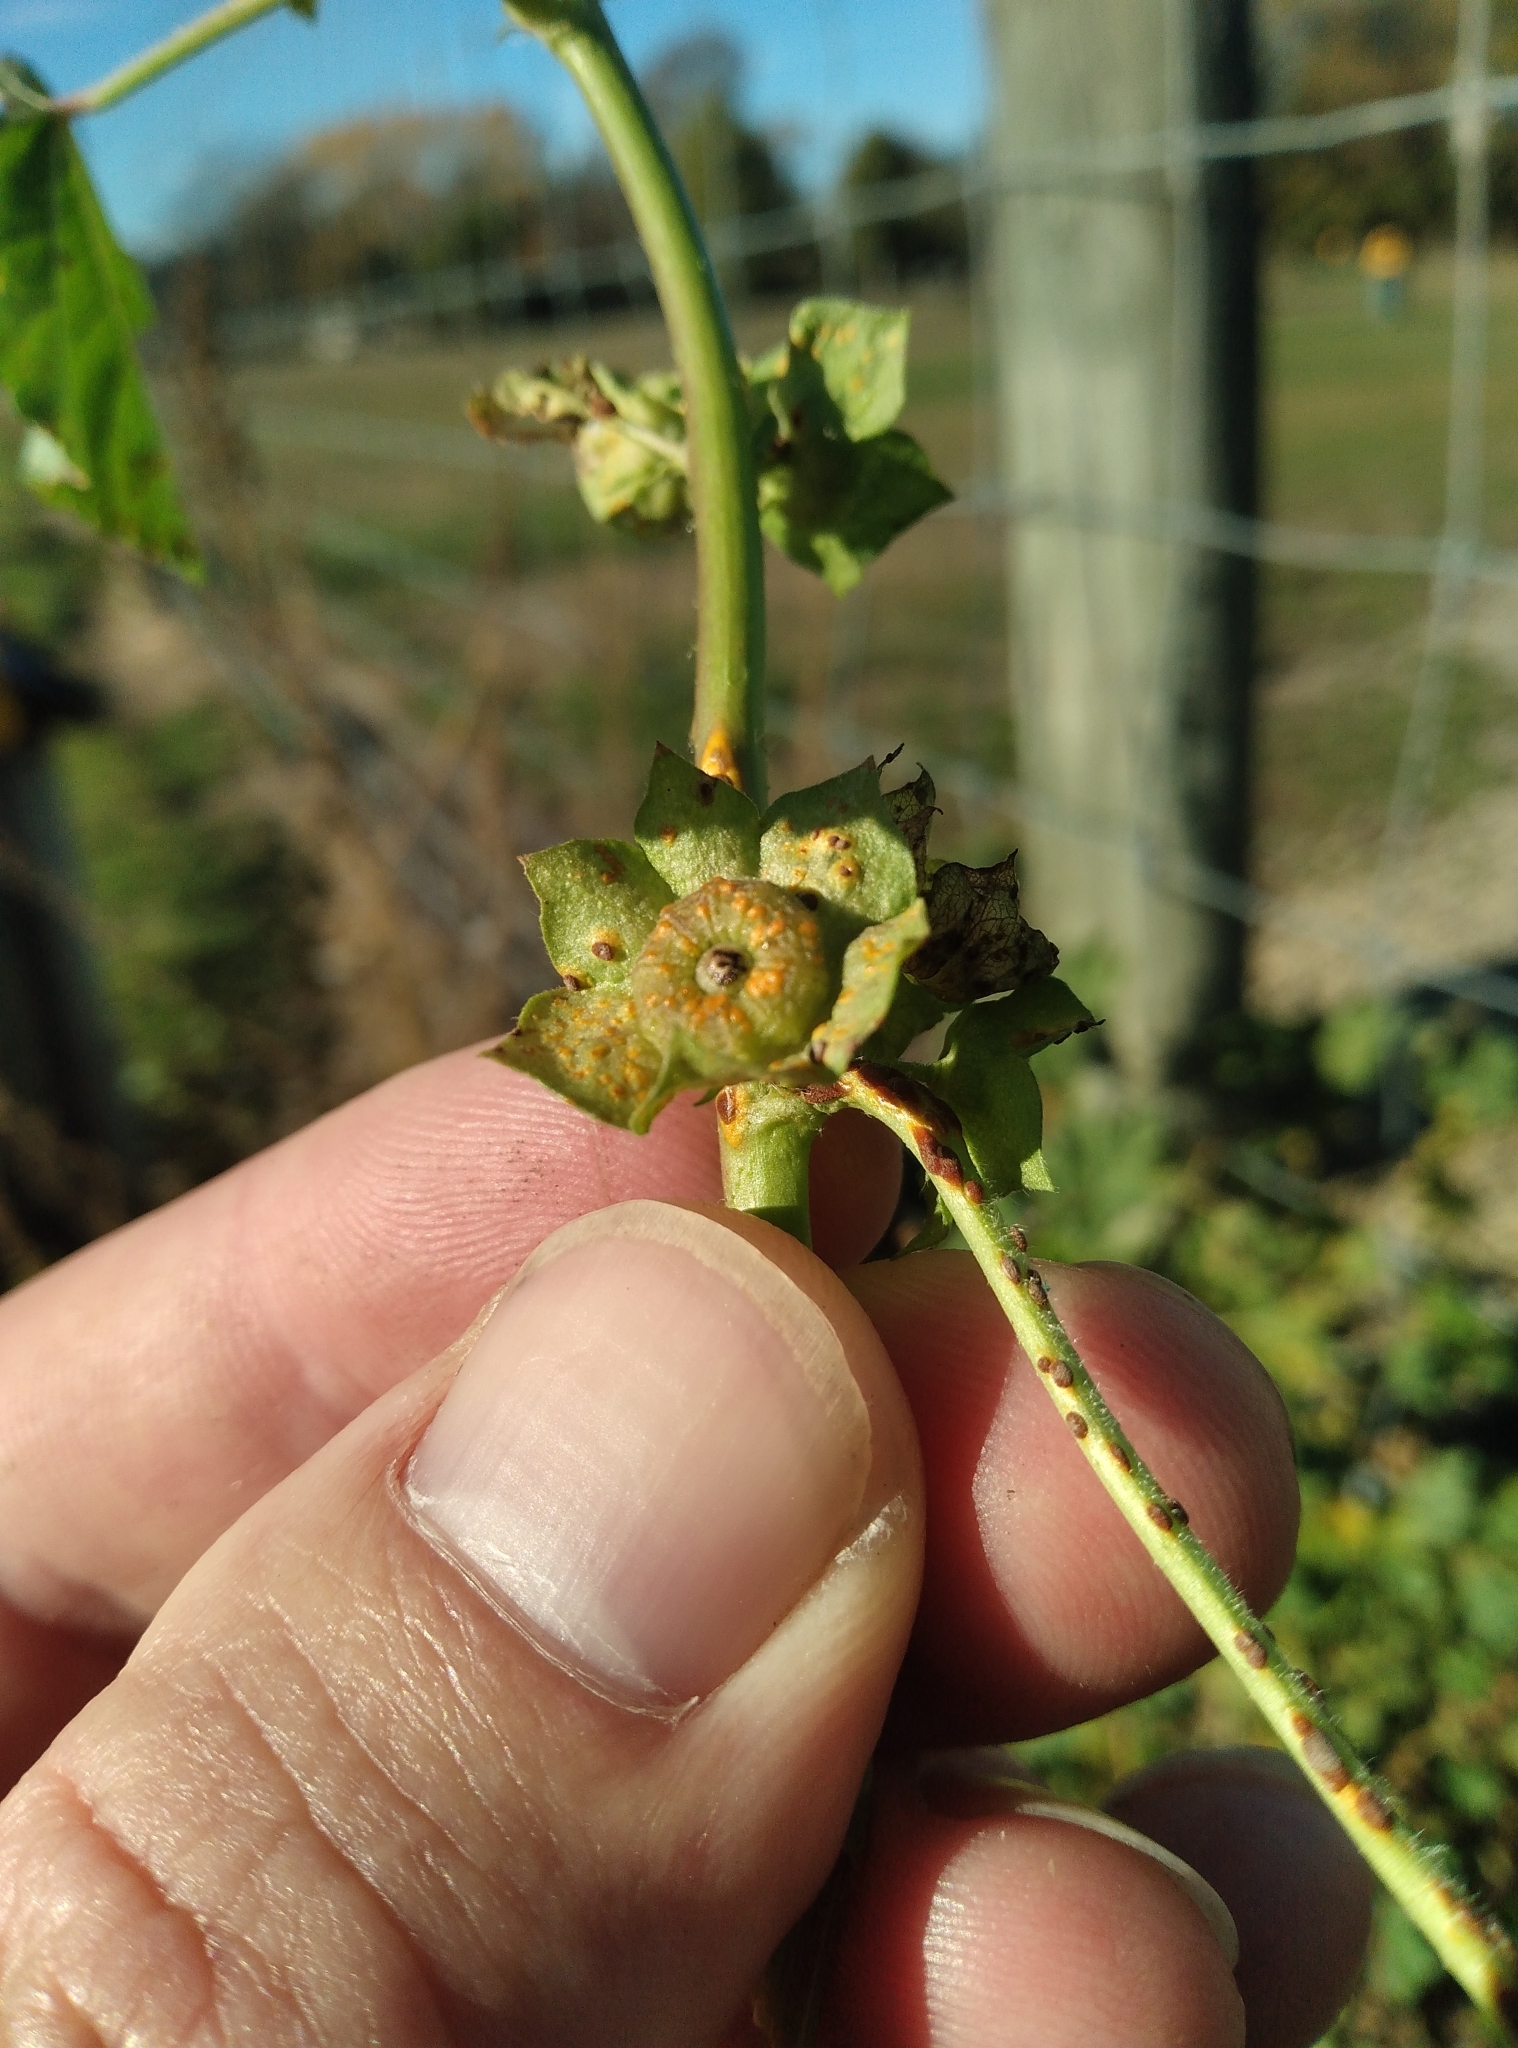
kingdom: Fungi
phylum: Basidiomycota
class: Pucciniomycetes
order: Pucciniales
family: Pucciniaceae
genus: Puccinia
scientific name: Puccinia malvacearum
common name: Hollyhock rust
